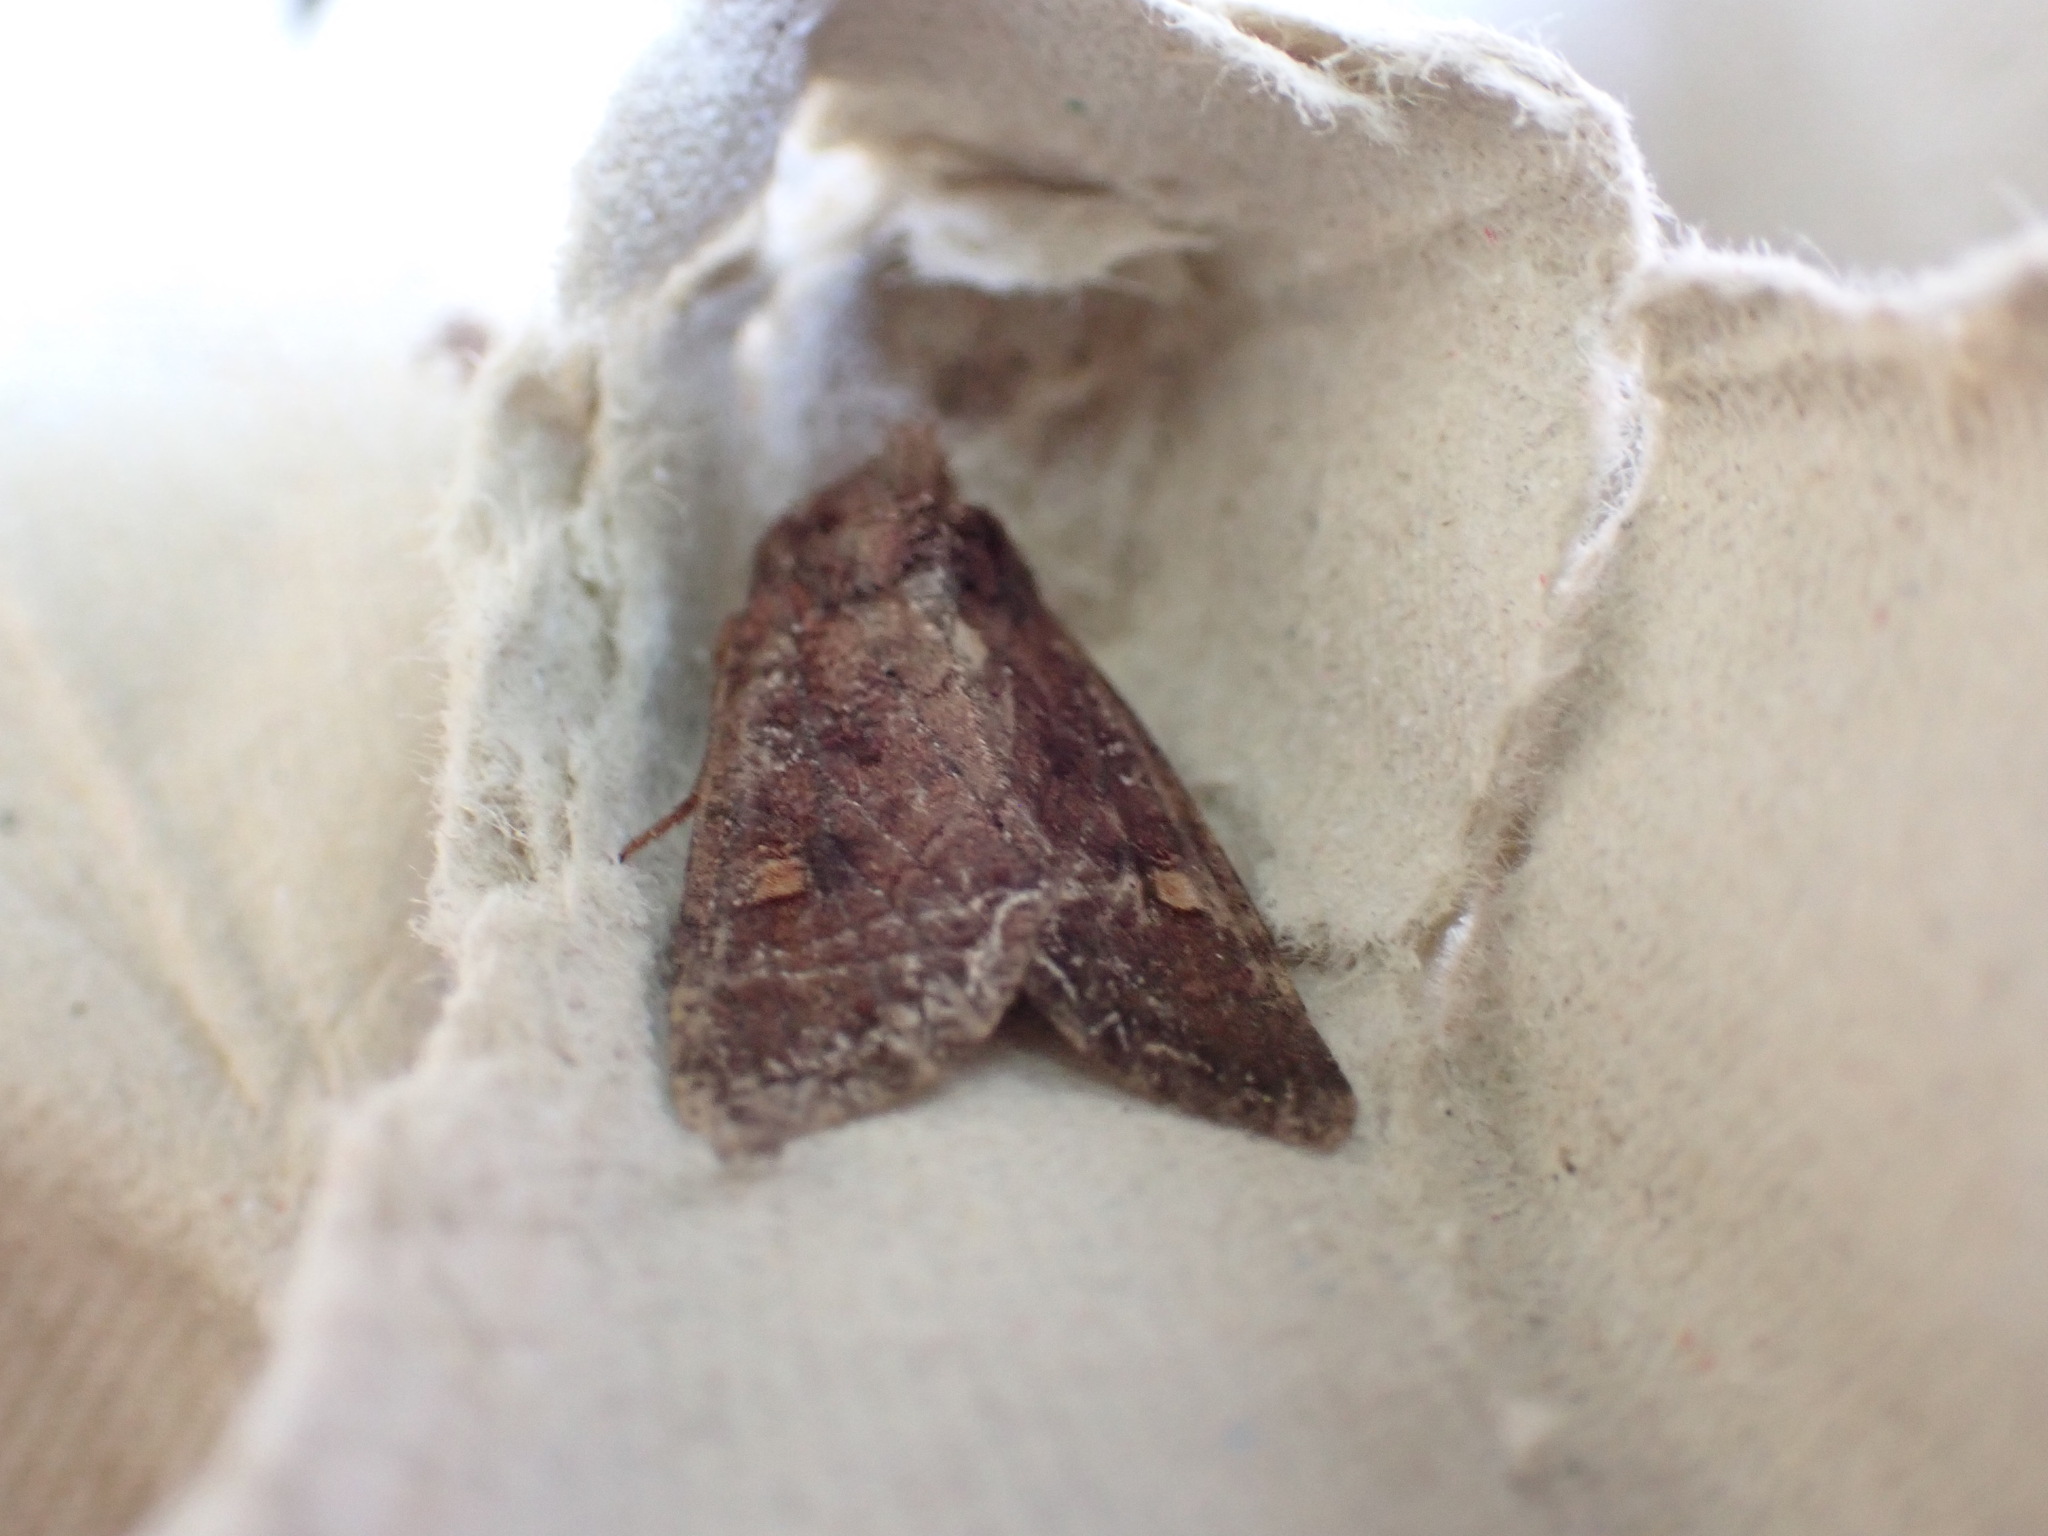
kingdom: Animalia
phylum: Arthropoda
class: Insecta
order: Lepidoptera
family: Noctuidae
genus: Lacanobia
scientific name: Lacanobia oleracea
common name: Bright-line brown-eye
